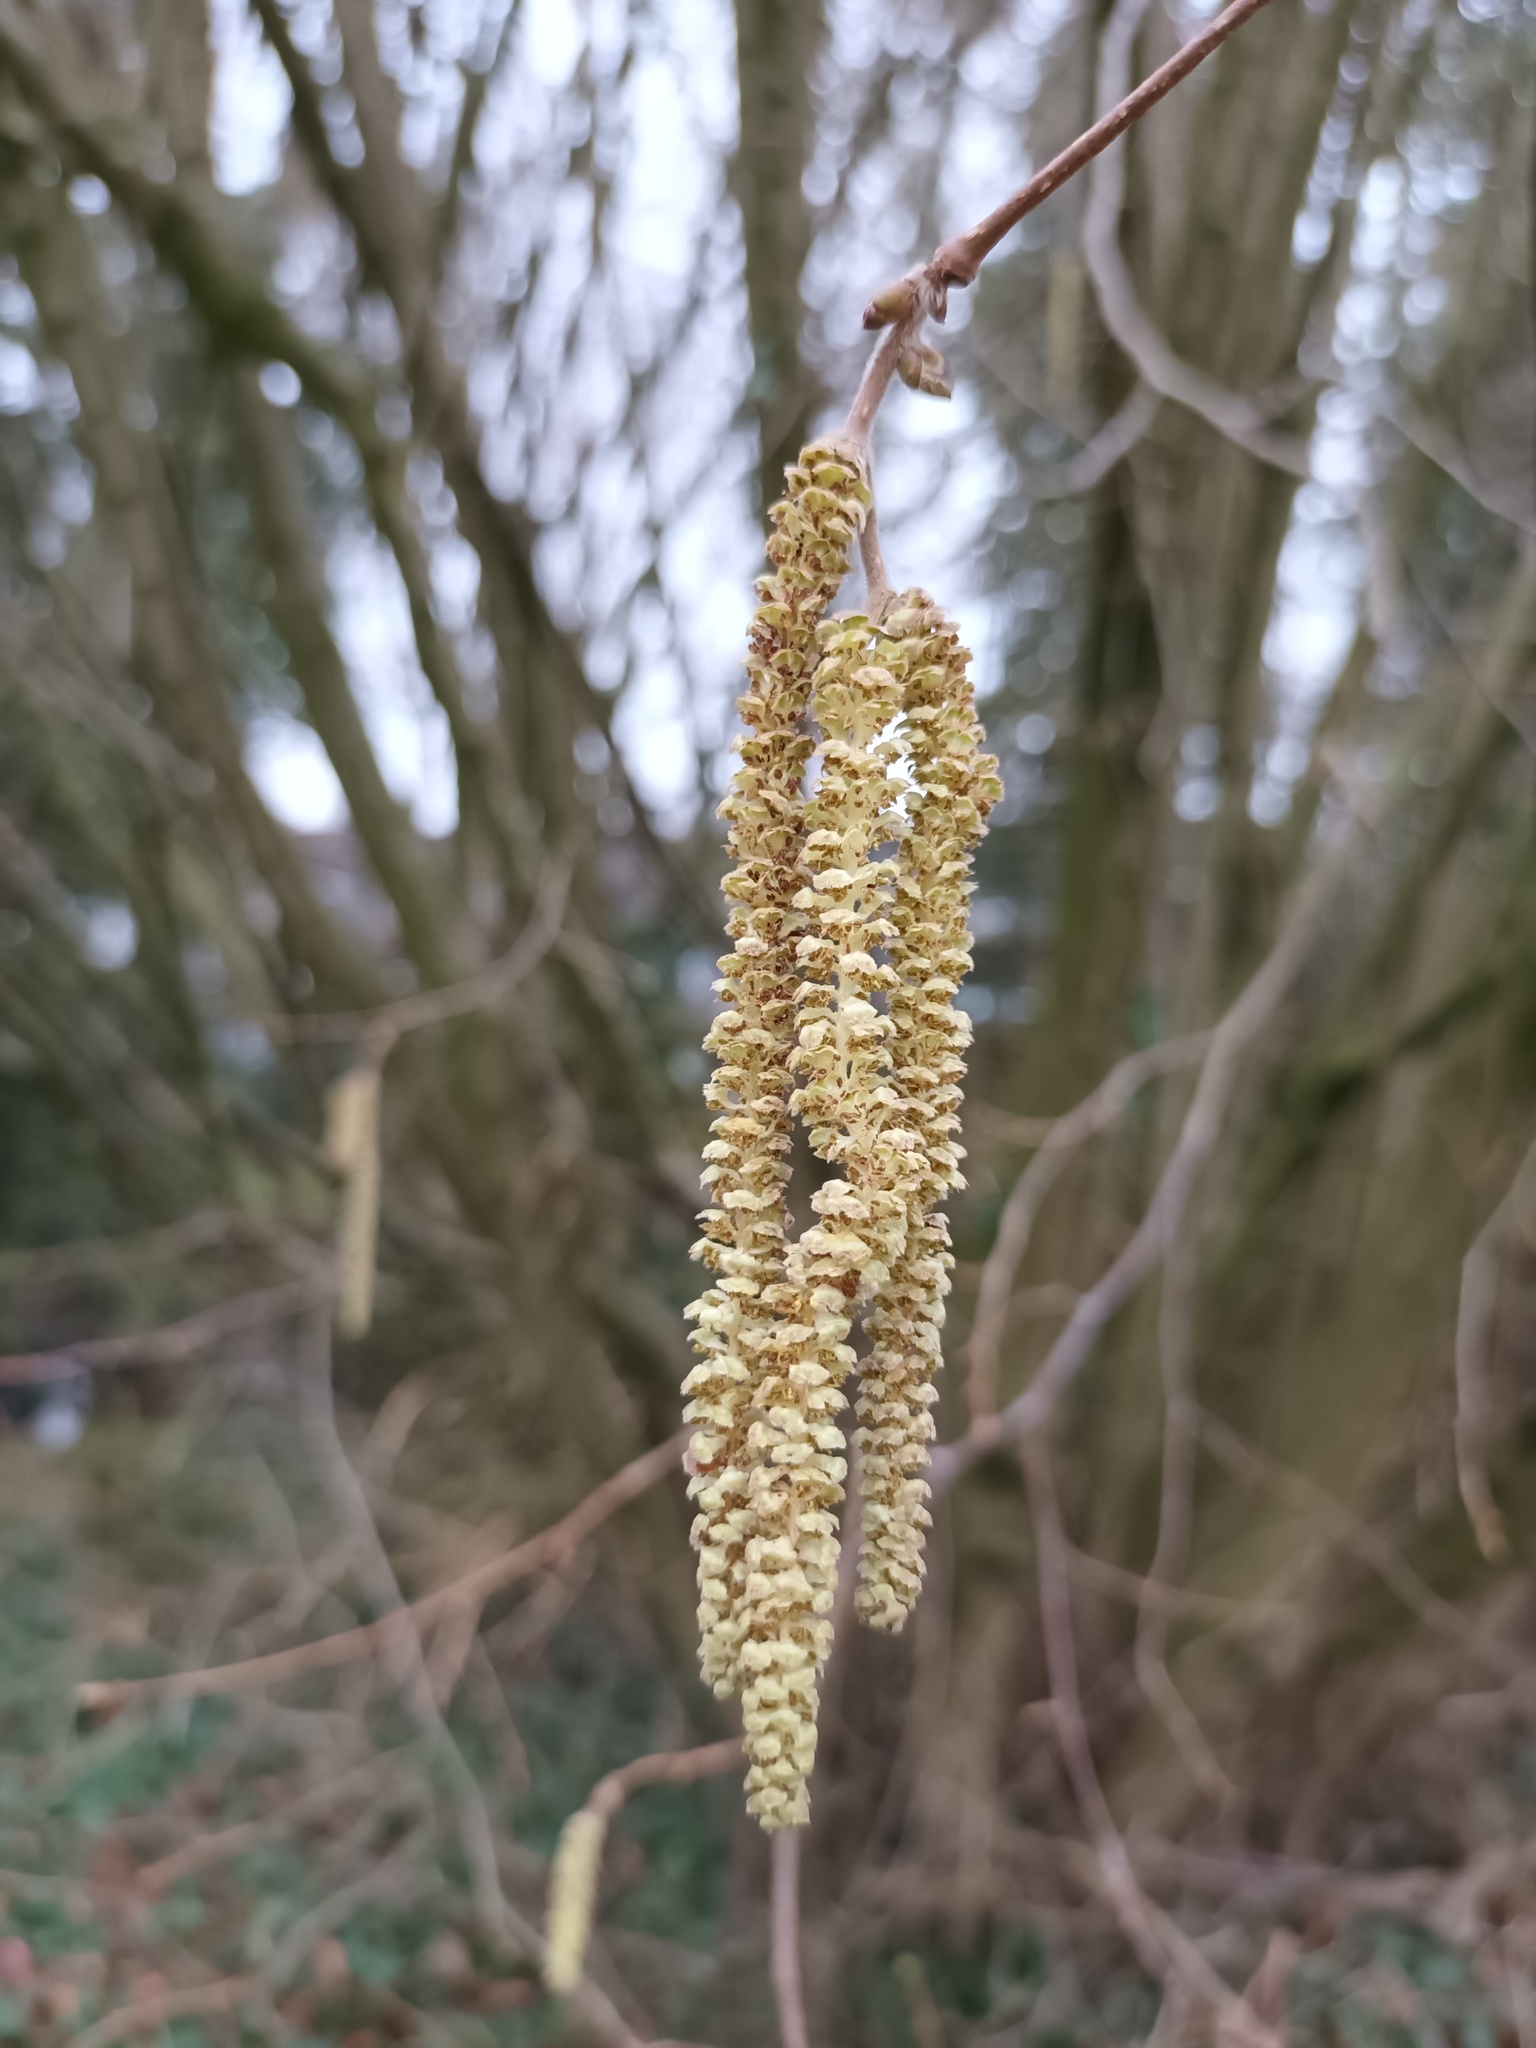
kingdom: Plantae
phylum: Tracheophyta
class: Magnoliopsida
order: Fagales
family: Betulaceae
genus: Corylus
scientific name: Corylus avellana
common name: European hazel
